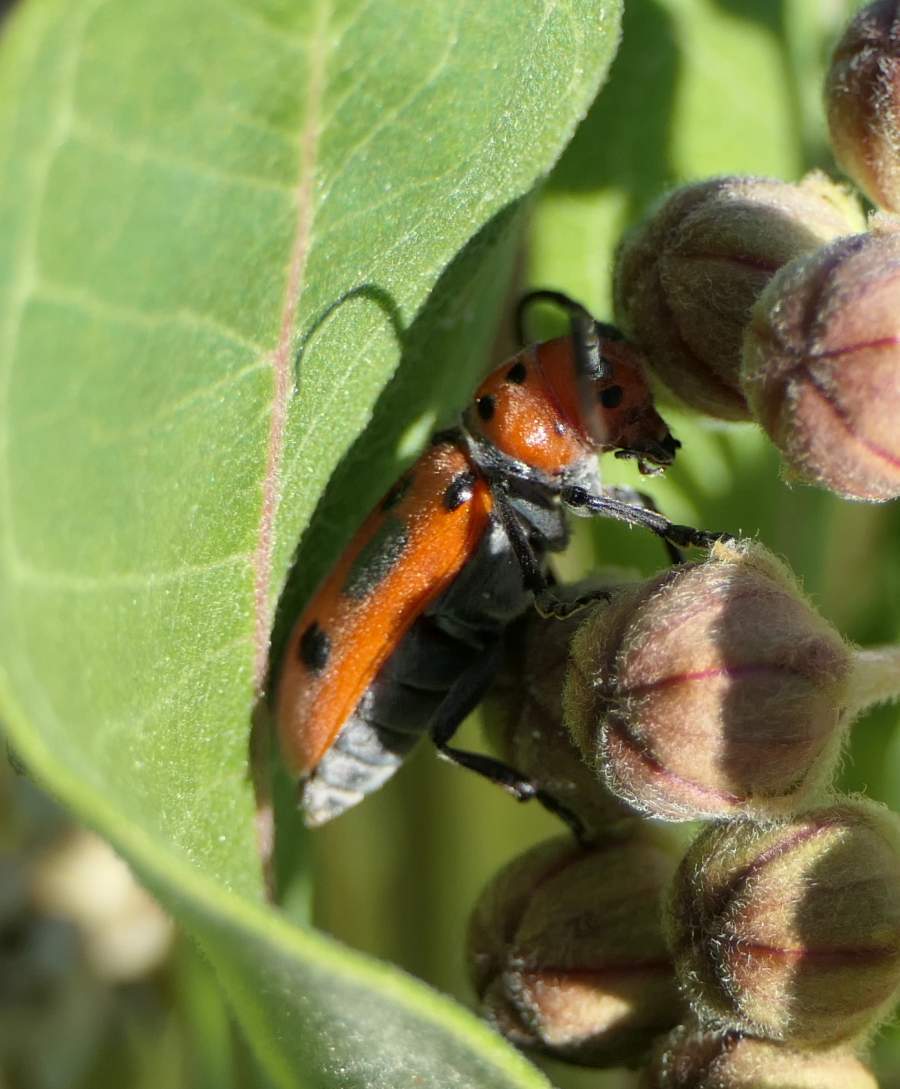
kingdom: Animalia
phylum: Arthropoda
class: Insecta
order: Coleoptera
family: Cerambycidae
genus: Tetraopes
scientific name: Tetraopes tetrophthalmus
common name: Red milkweed beetle
